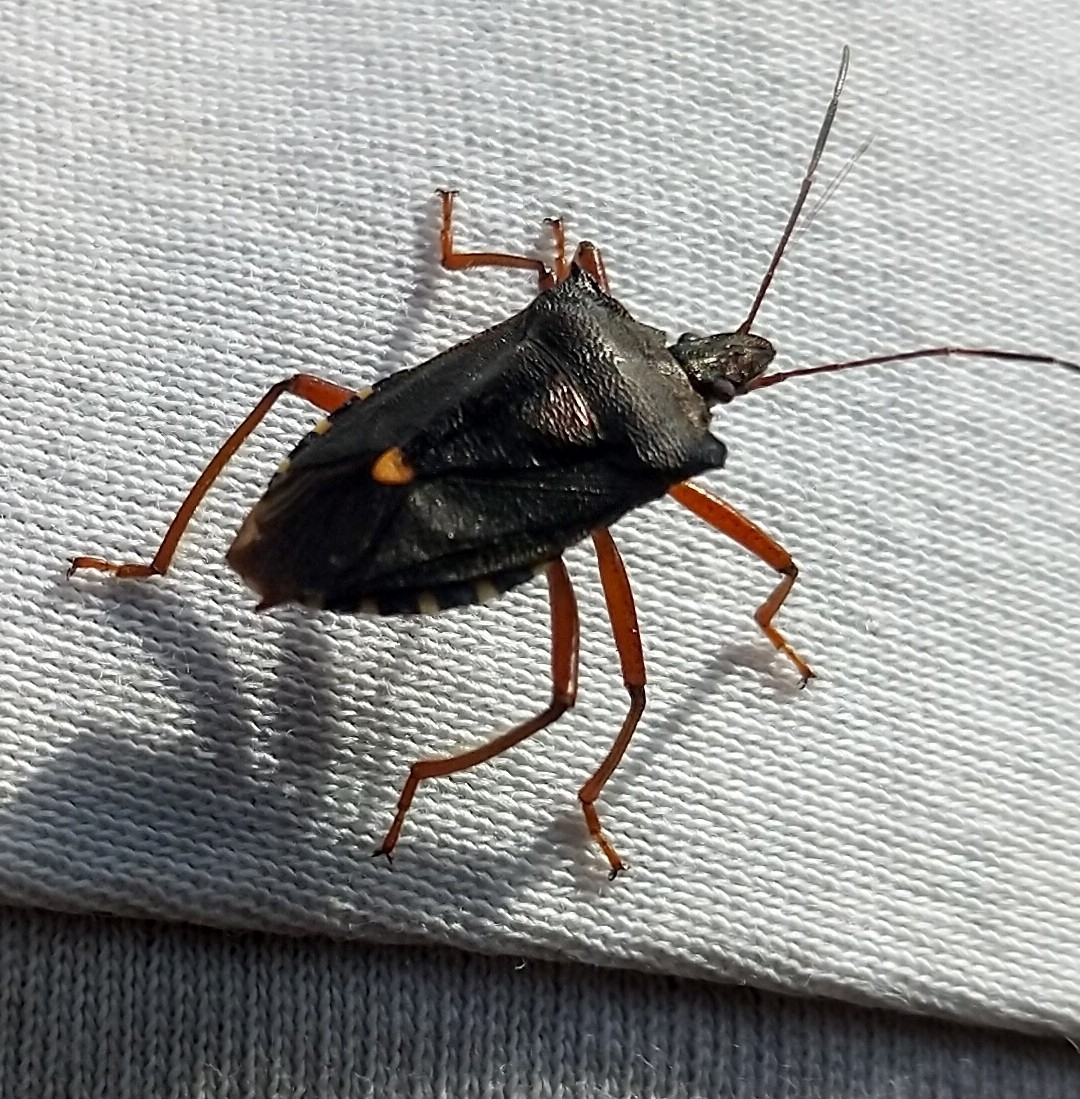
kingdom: Animalia
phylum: Arthropoda
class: Insecta
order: Hemiptera
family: Pentatomidae
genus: Pentatoma
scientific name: Pentatoma rufipes
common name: Forest bug
